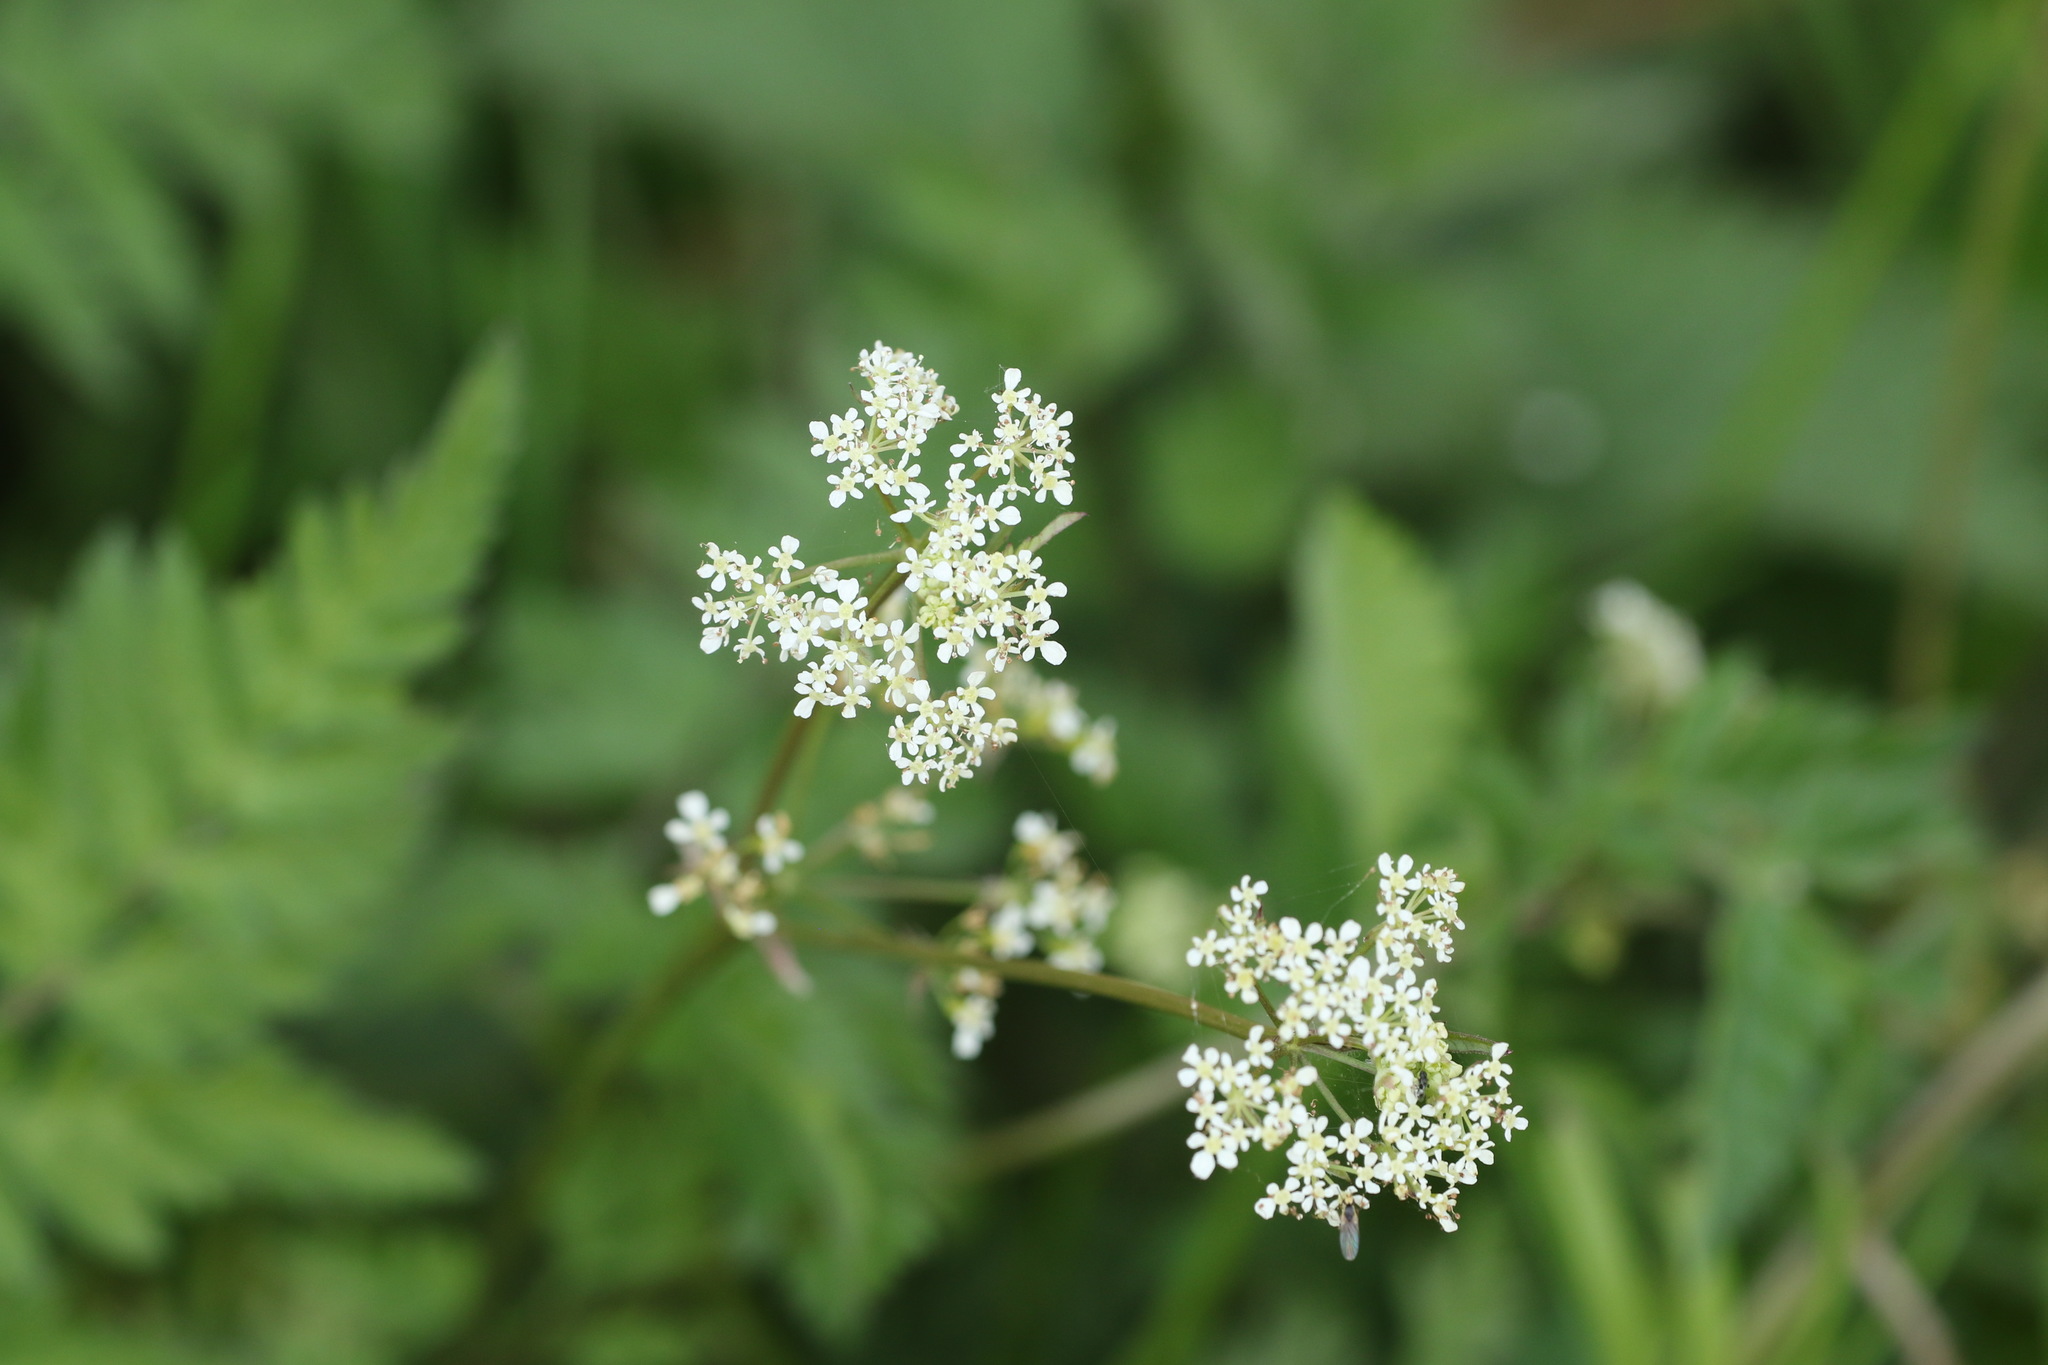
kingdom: Plantae
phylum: Tracheophyta
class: Magnoliopsida
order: Apiales
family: Apiaceae
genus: Anthriscus
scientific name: Anthriscus sylvestris
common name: Cow parsley
